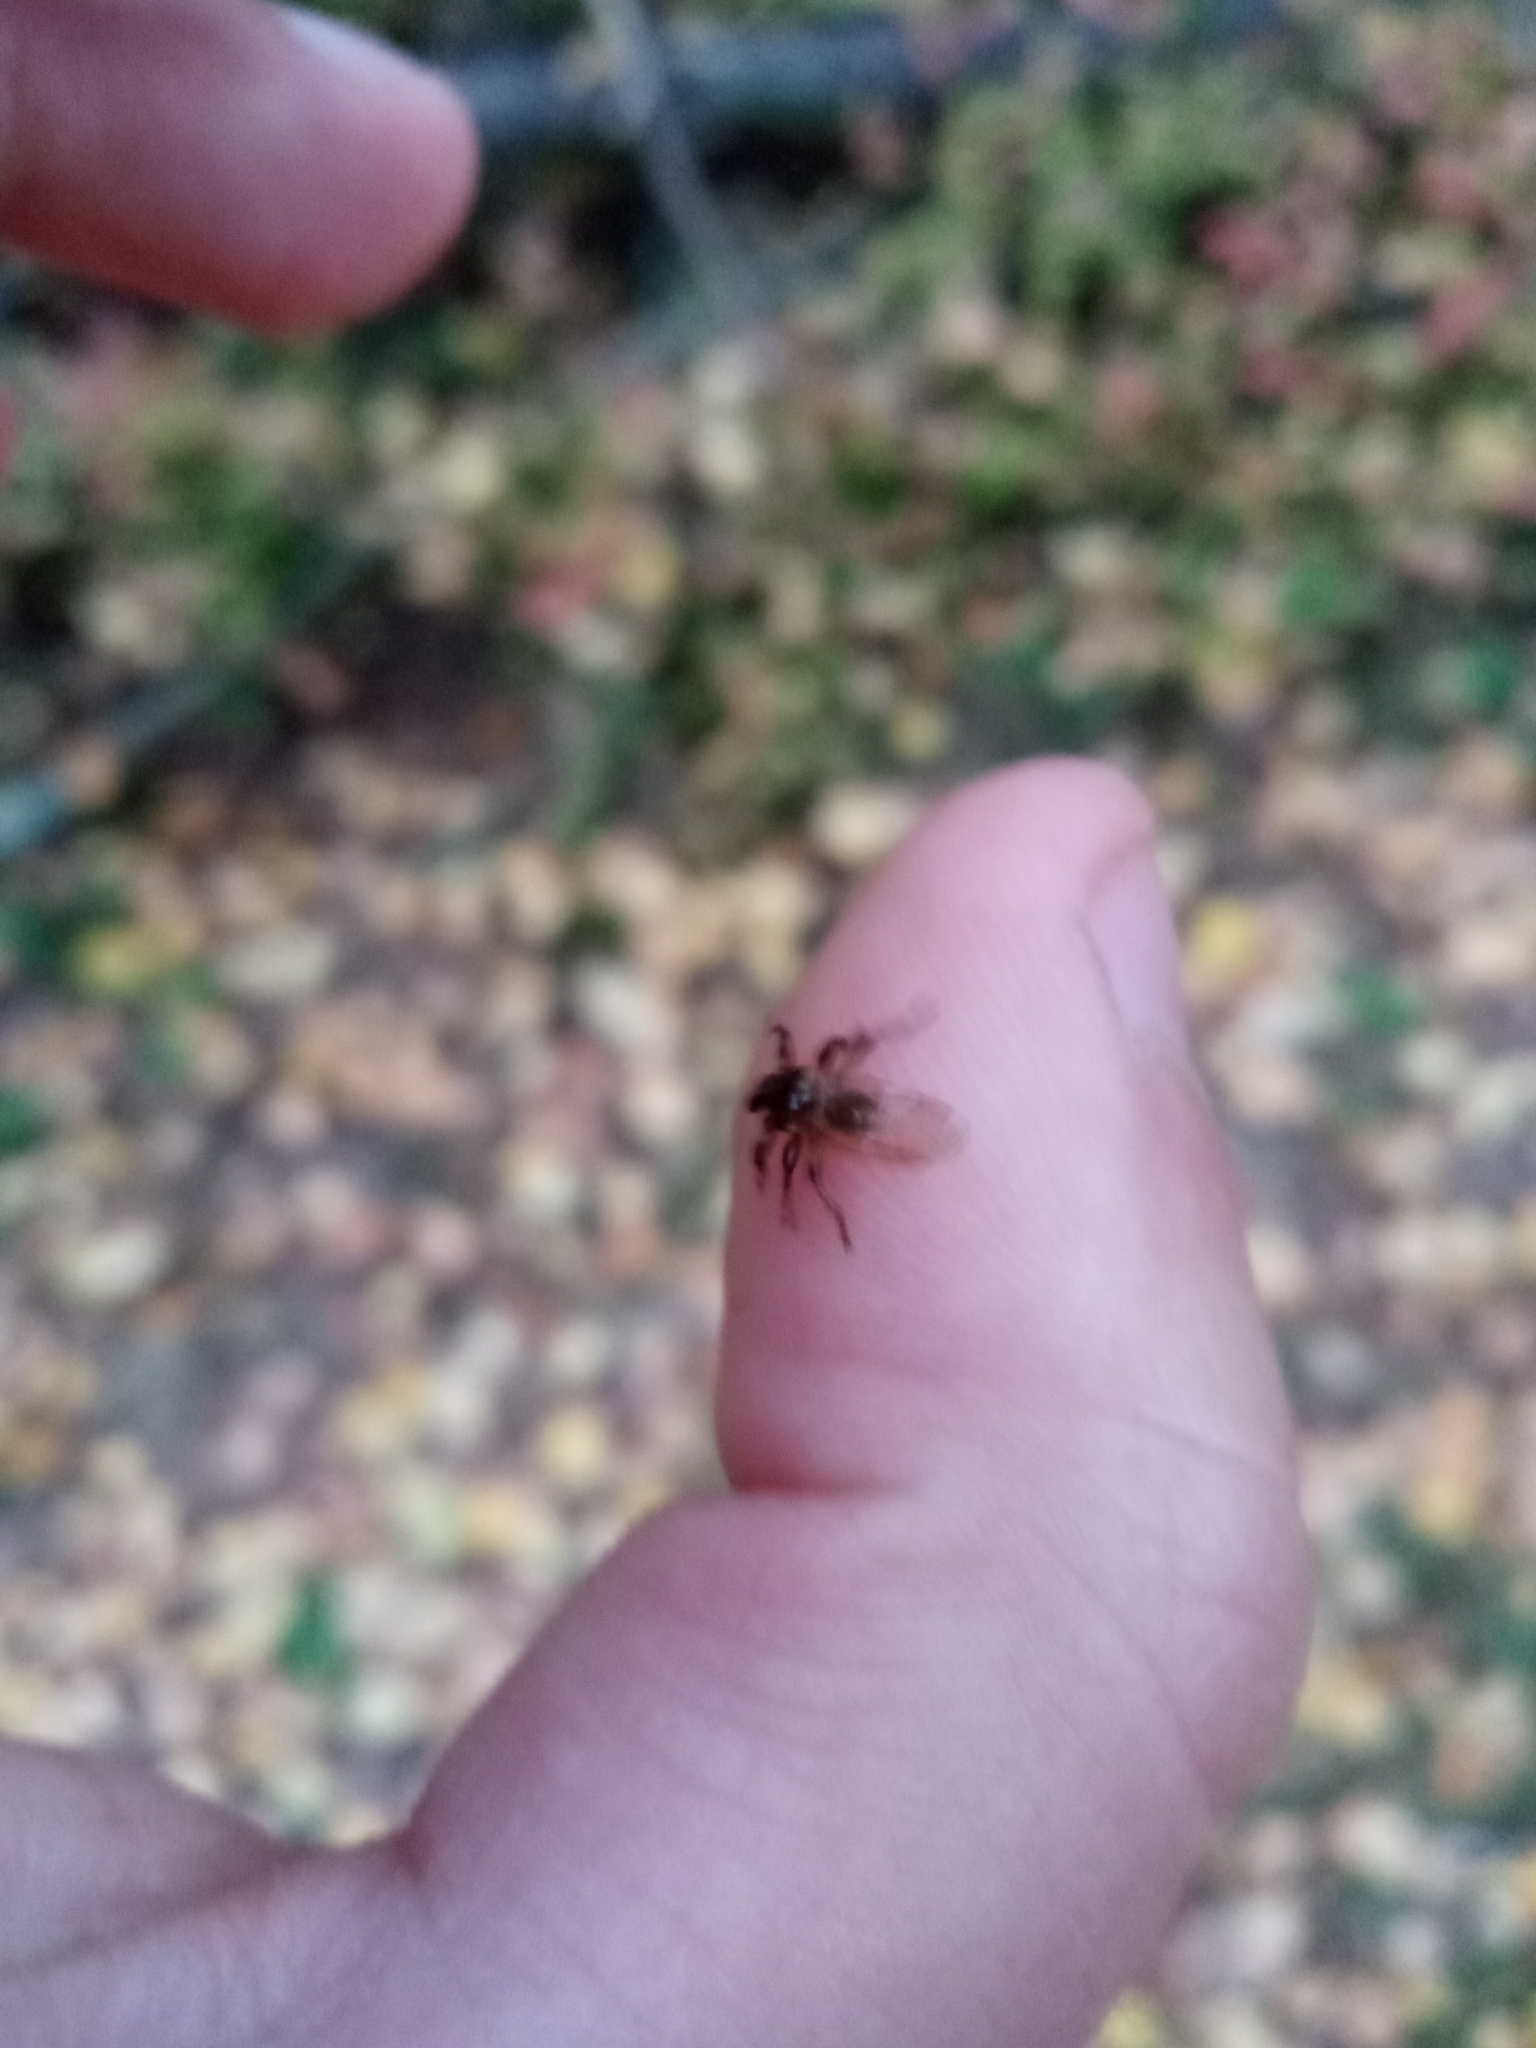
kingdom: Animalia
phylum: Arthropoda
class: Insecta
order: Diptera
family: Hippoboscidae
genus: Lipoptena
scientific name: Lipoptena cervi
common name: Deer ked
